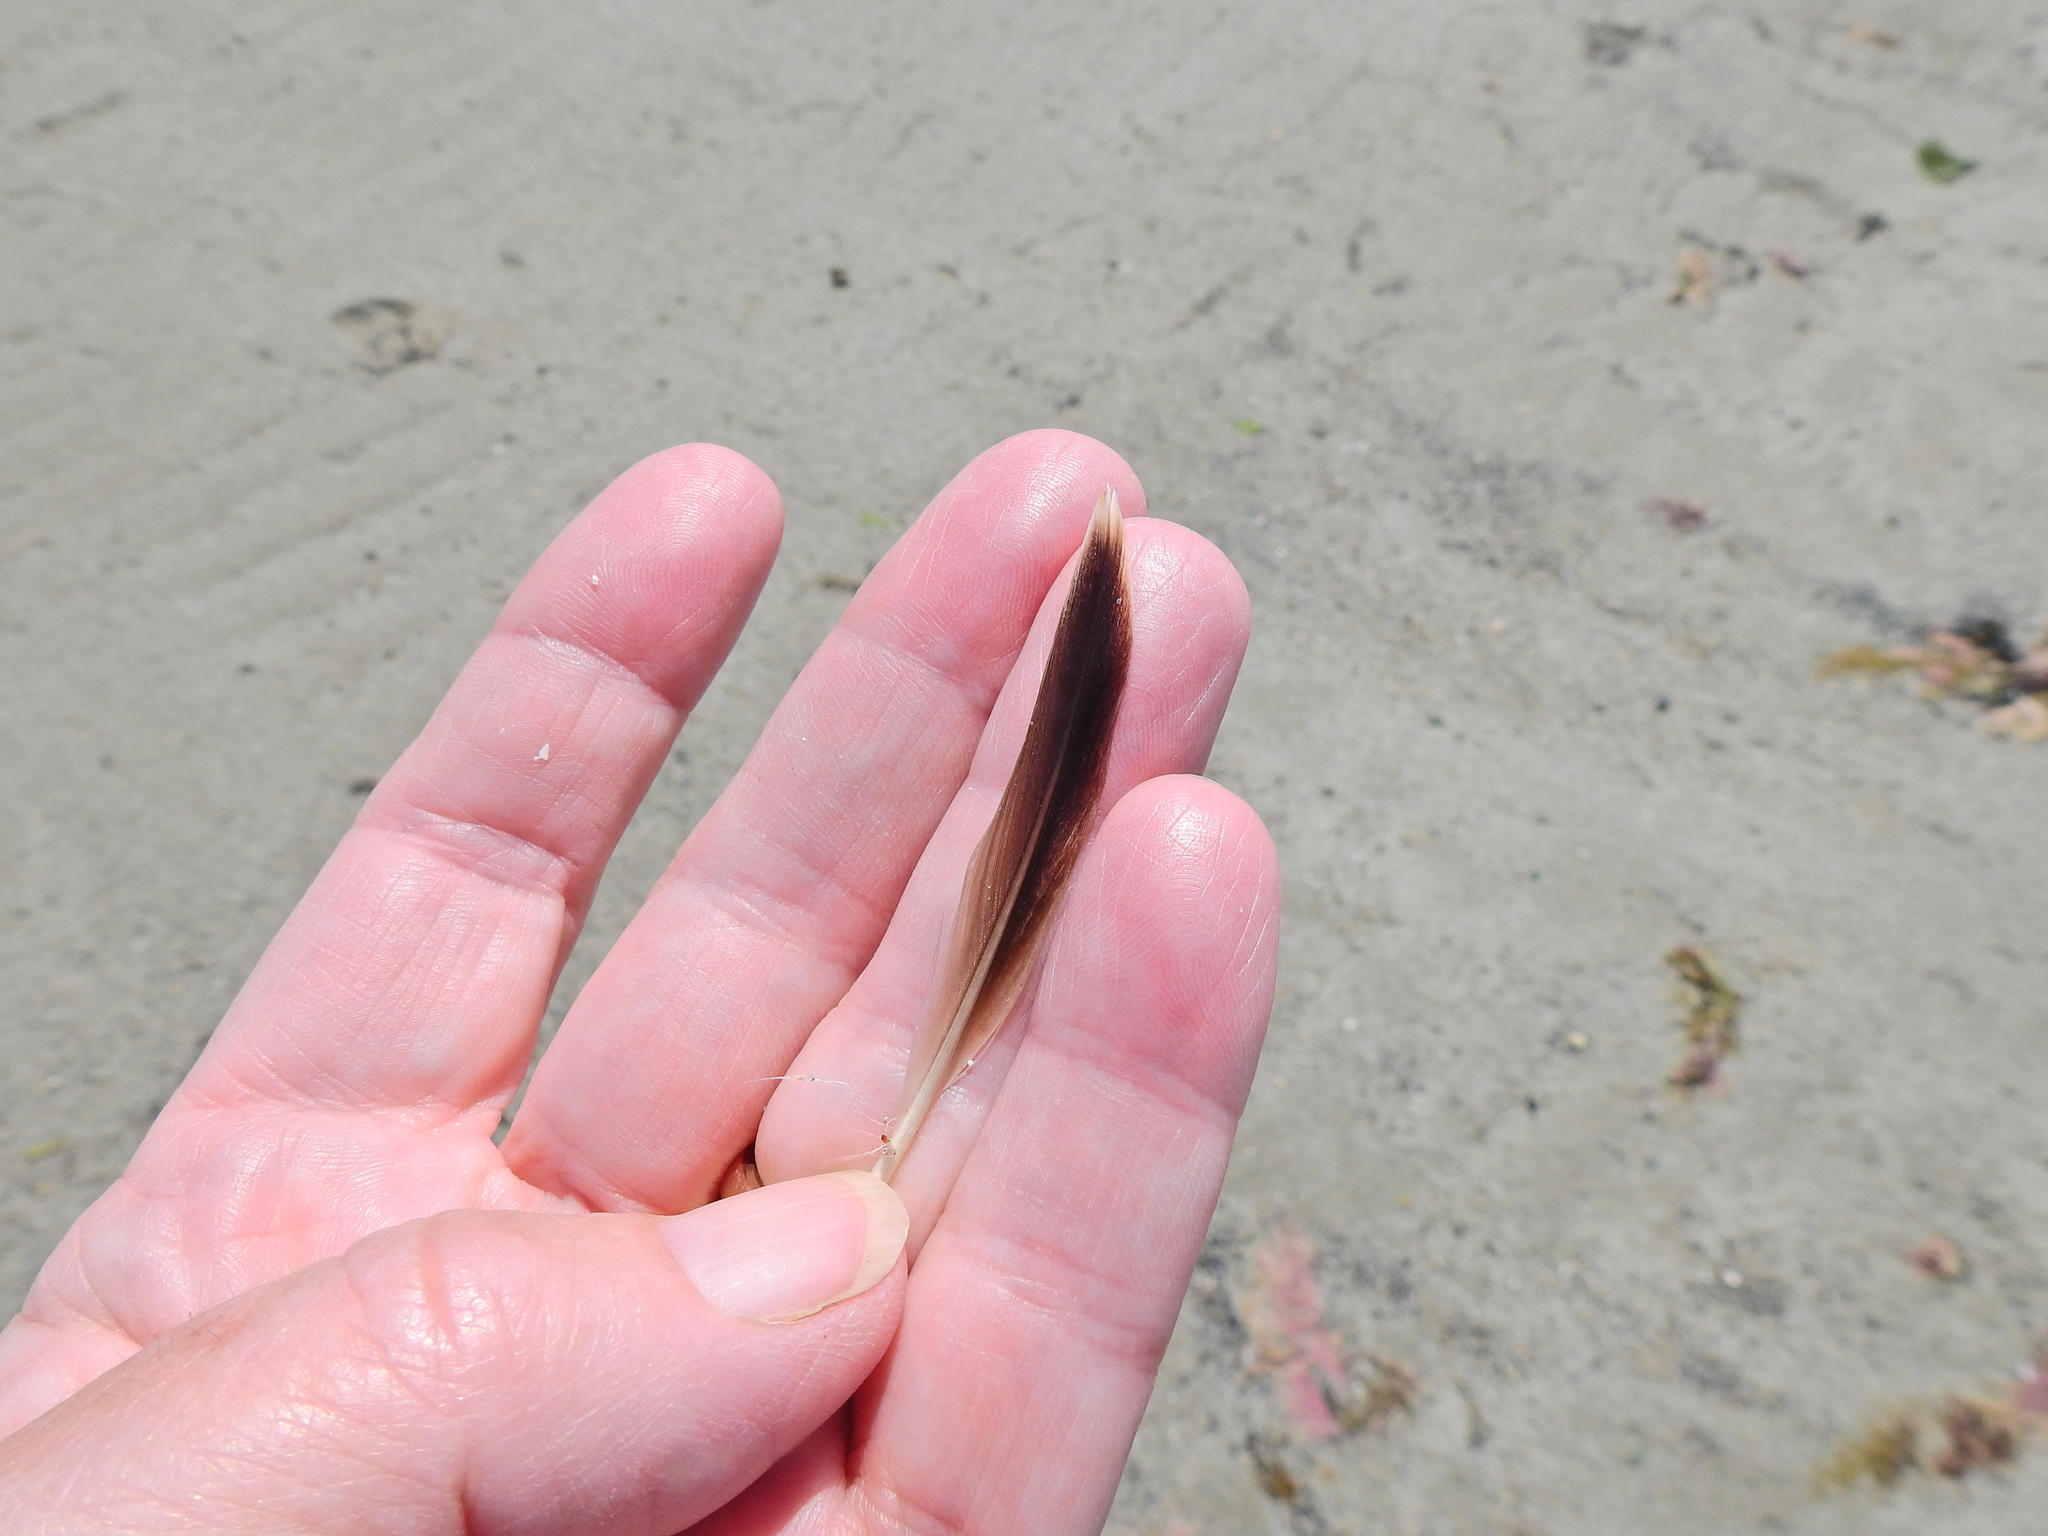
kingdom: Animalia
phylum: Chordata
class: Aves
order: Charadriiformes
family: Alcidae
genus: Uria
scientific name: Uria aalge
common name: Common murre
